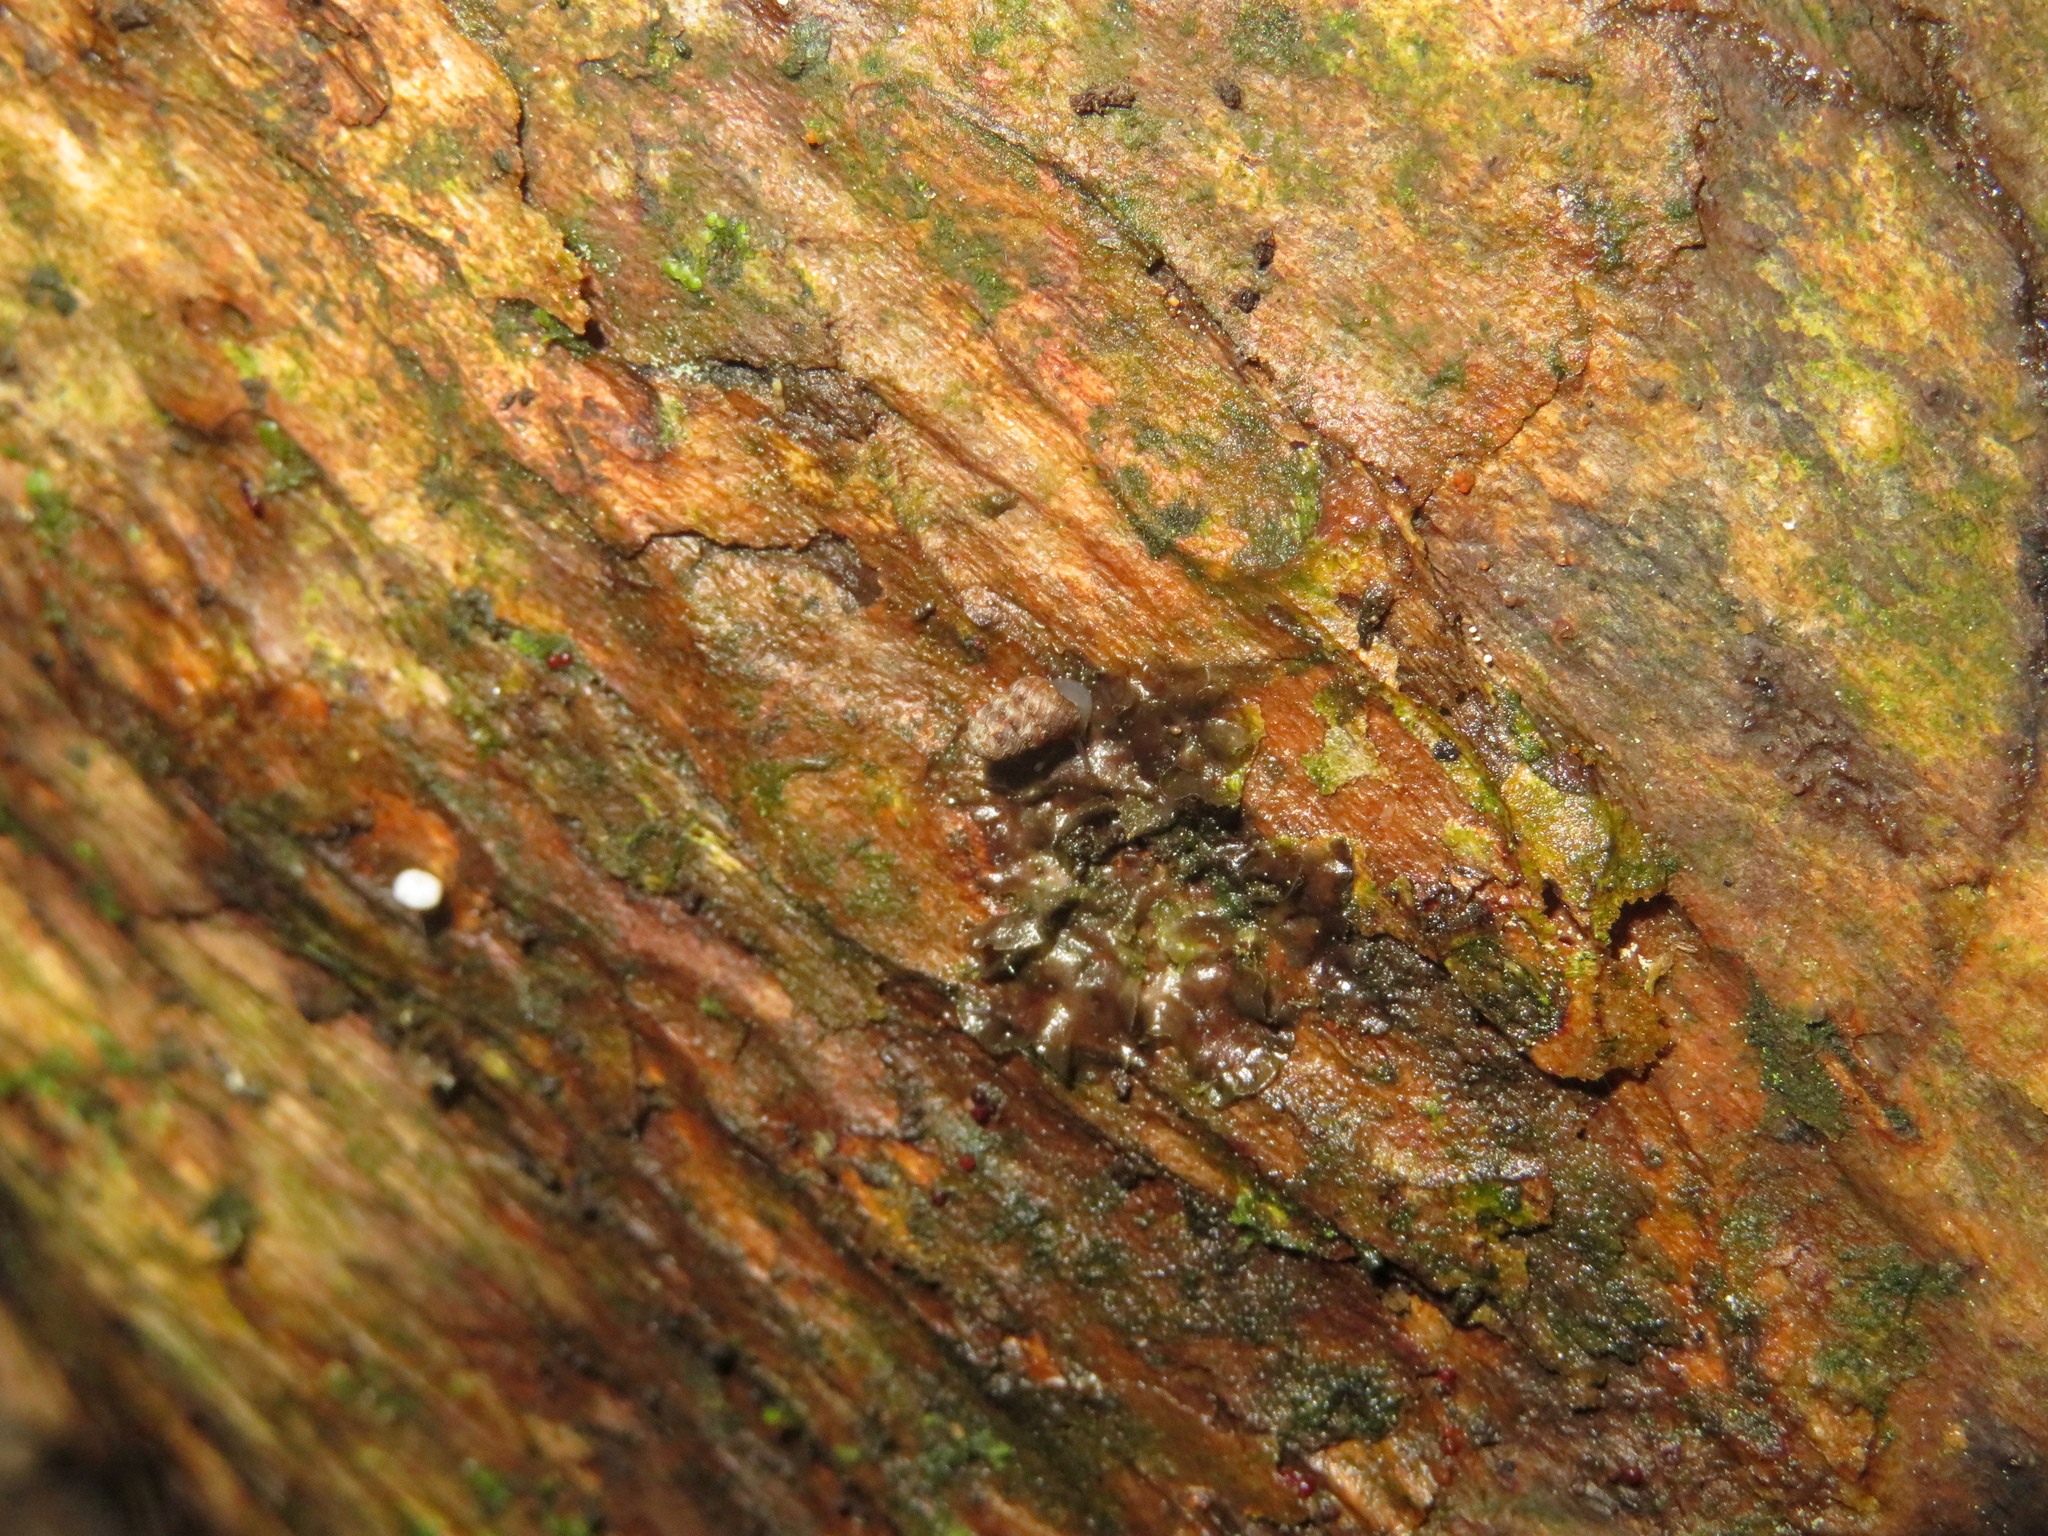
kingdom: Animalia
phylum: Mollusca
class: Gastropoda
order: Stylommatophora
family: Charopidae
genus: Phenacharopa
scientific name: Phenacharopa novoseelandica
